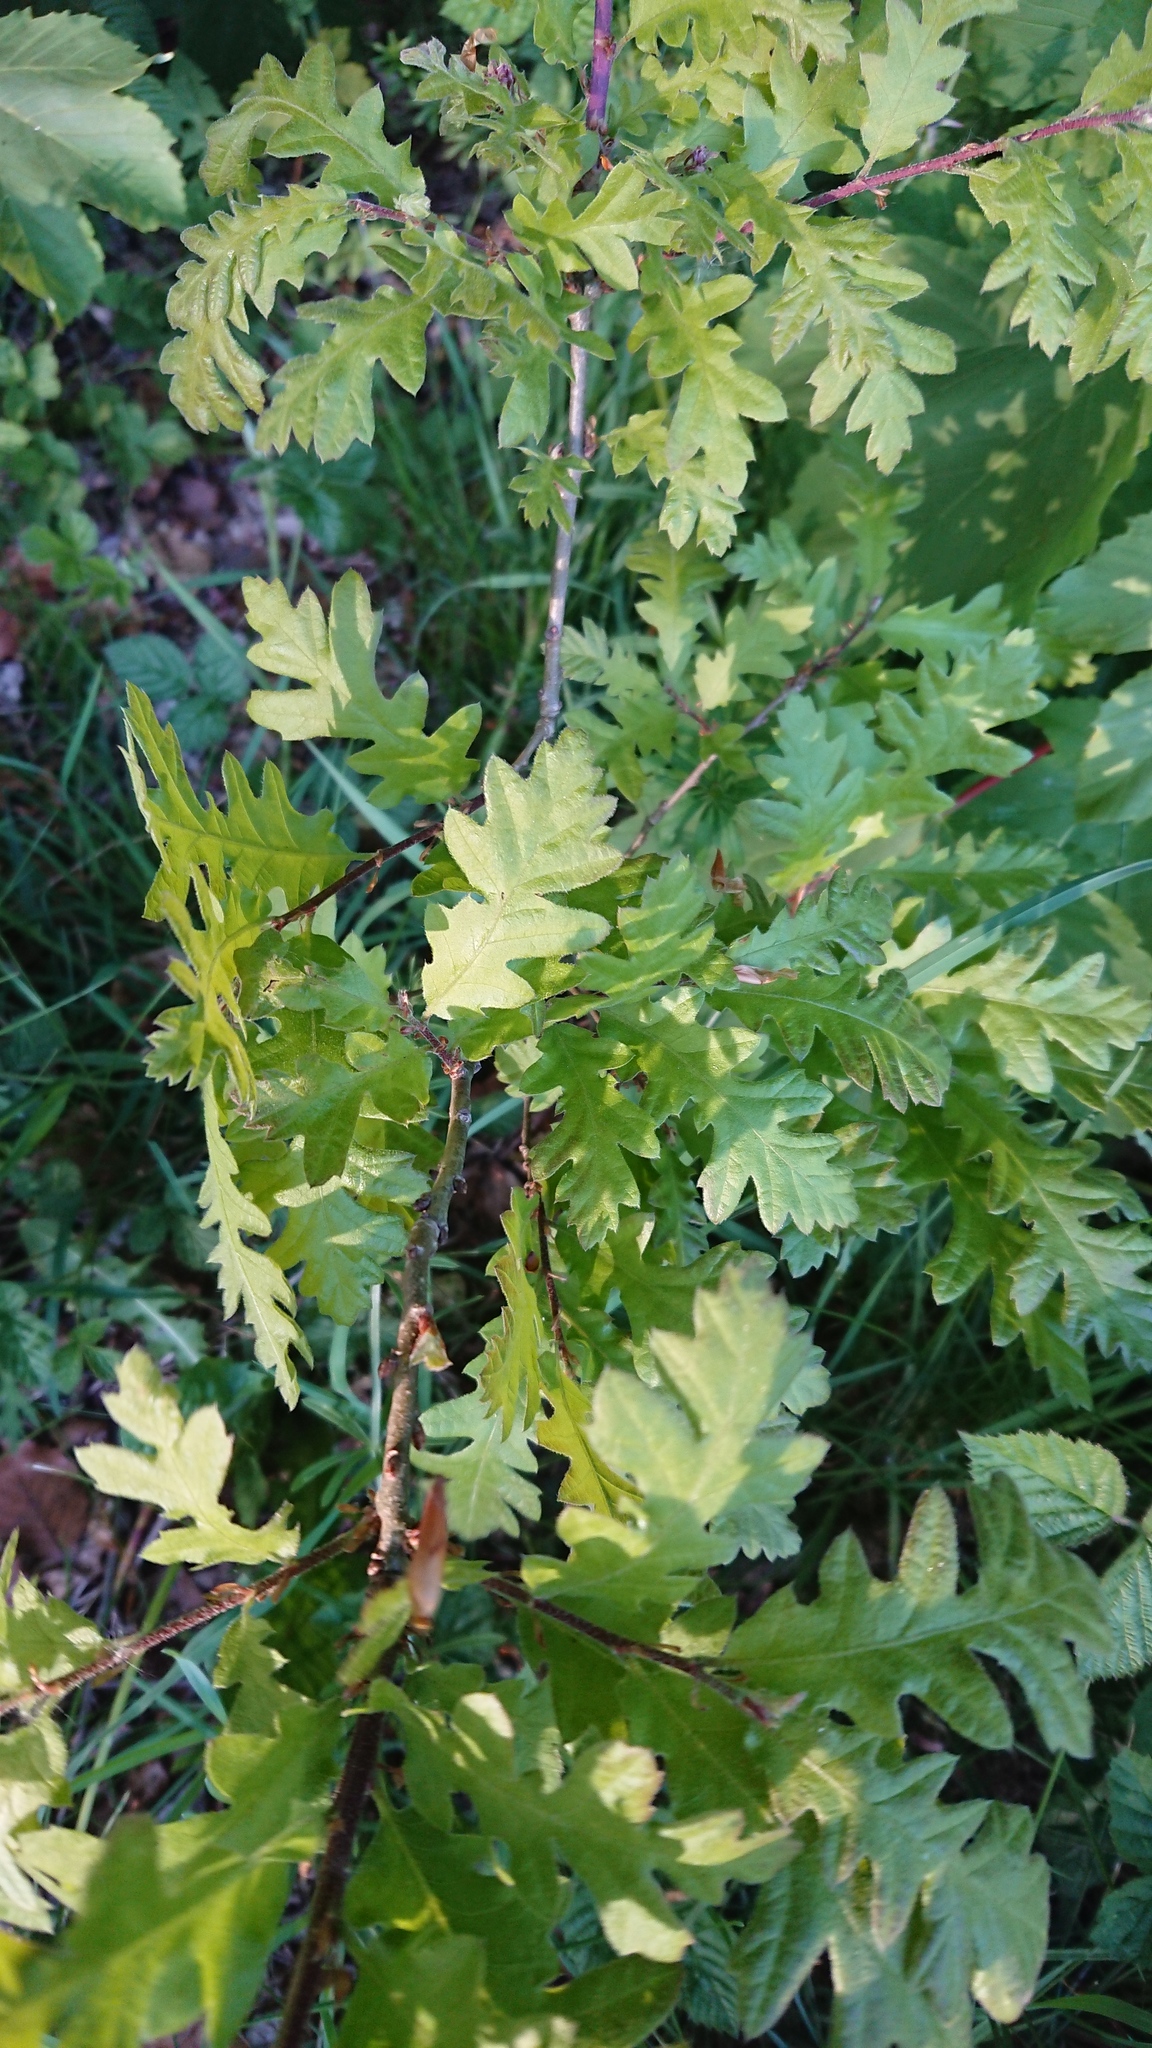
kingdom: Plantae
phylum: Tracheophyta
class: Magnoliopsida
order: Fagales
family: Fagaceae
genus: Quercus
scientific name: Quercus robur
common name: Pedunculate oak
